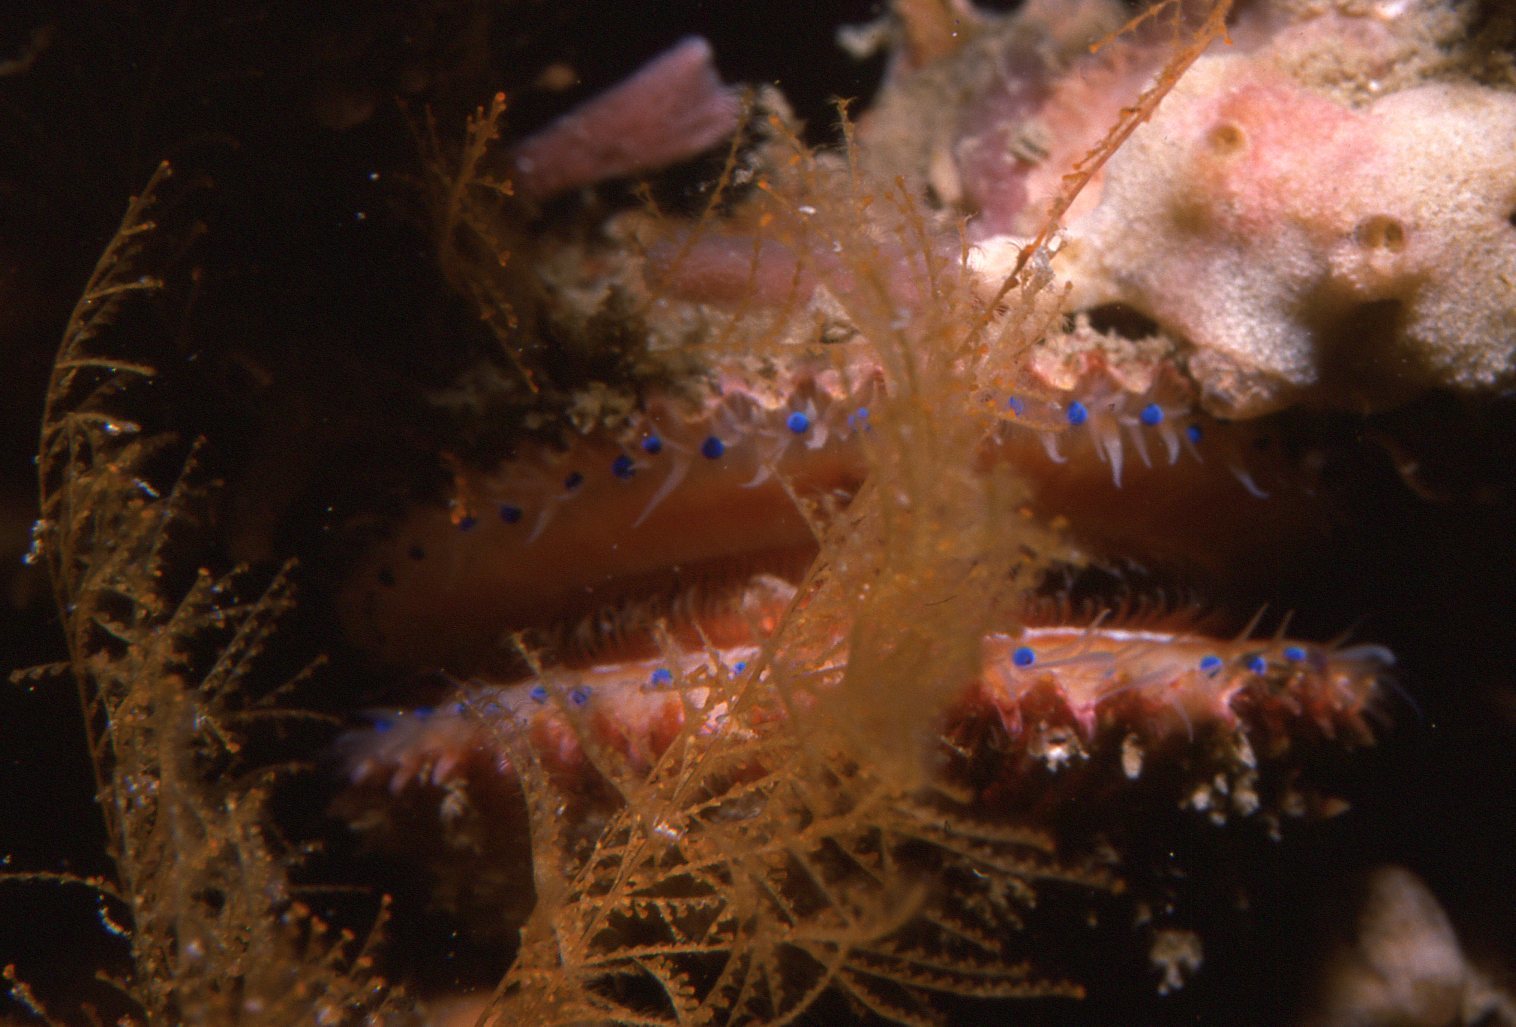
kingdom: Animalia
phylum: Mollusca
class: Bivalvia
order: Pectinida
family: Pectinidae
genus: Mimachlamys
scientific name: Mimachlamys asperrima
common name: Austral scallop
